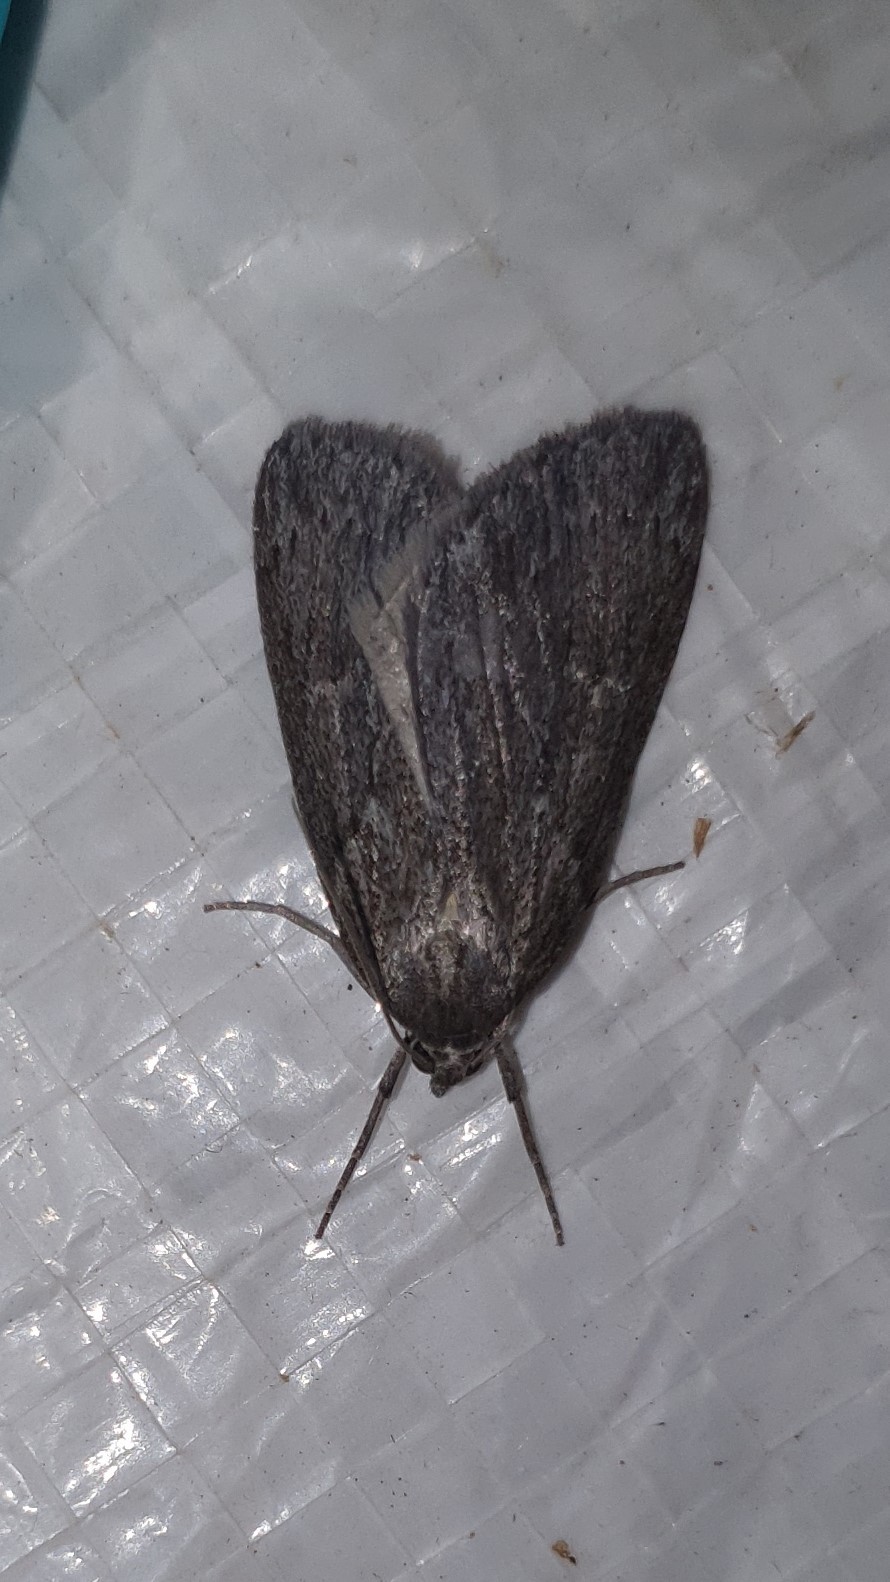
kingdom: Animalia
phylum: Arthropoda
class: Insecta
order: Lepidoptera
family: Geometridae
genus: Pachycnemia
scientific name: Pachycnemia hippocastanaria
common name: Horse chestnut
